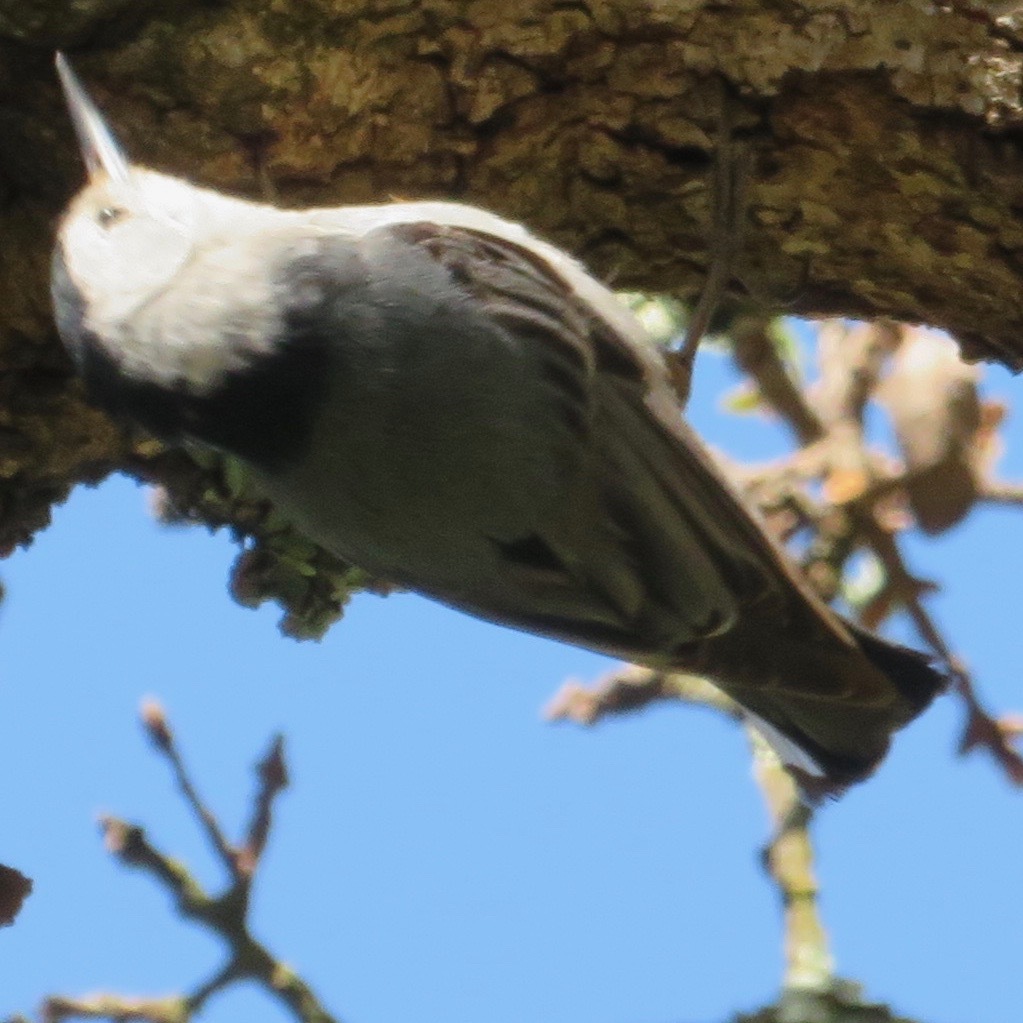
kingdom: Animalia
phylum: Chordata
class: Aves
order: Passeriformes
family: Sittidae
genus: Sitta
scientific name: Sitta carolinensis
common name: White-breasted nuthatch
